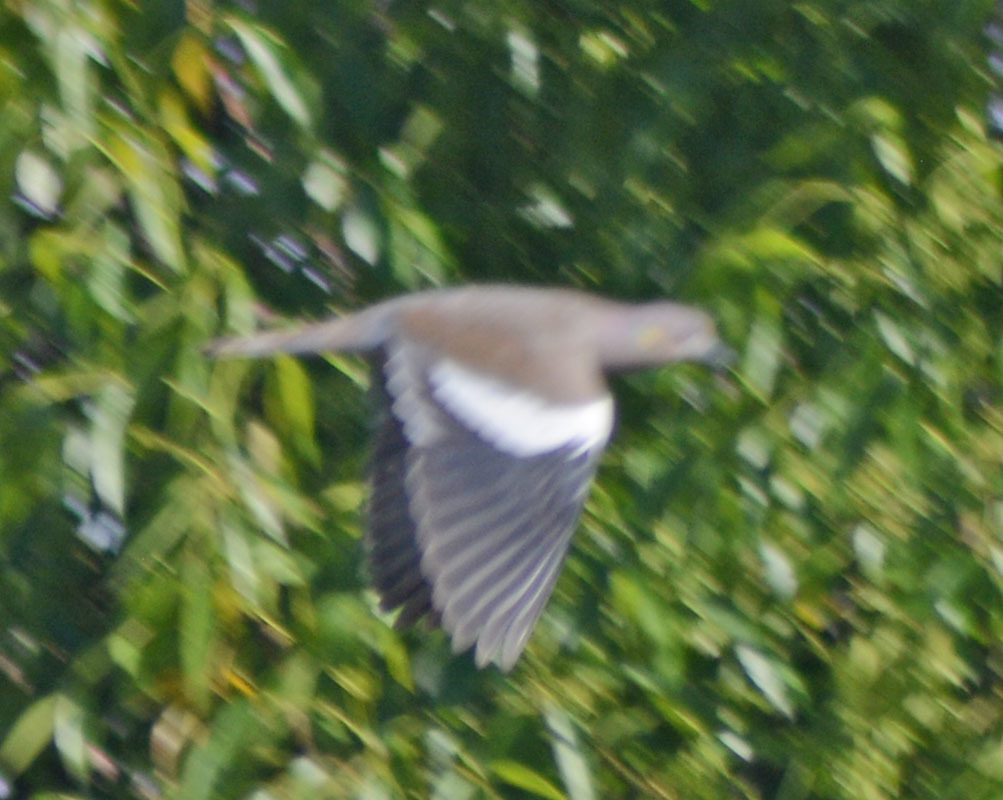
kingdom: Animalia
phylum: Chordata
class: Aves
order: Columbiformes
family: Columbidae
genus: Zenaida
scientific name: Zenaida asiatica
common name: White-winged dove
